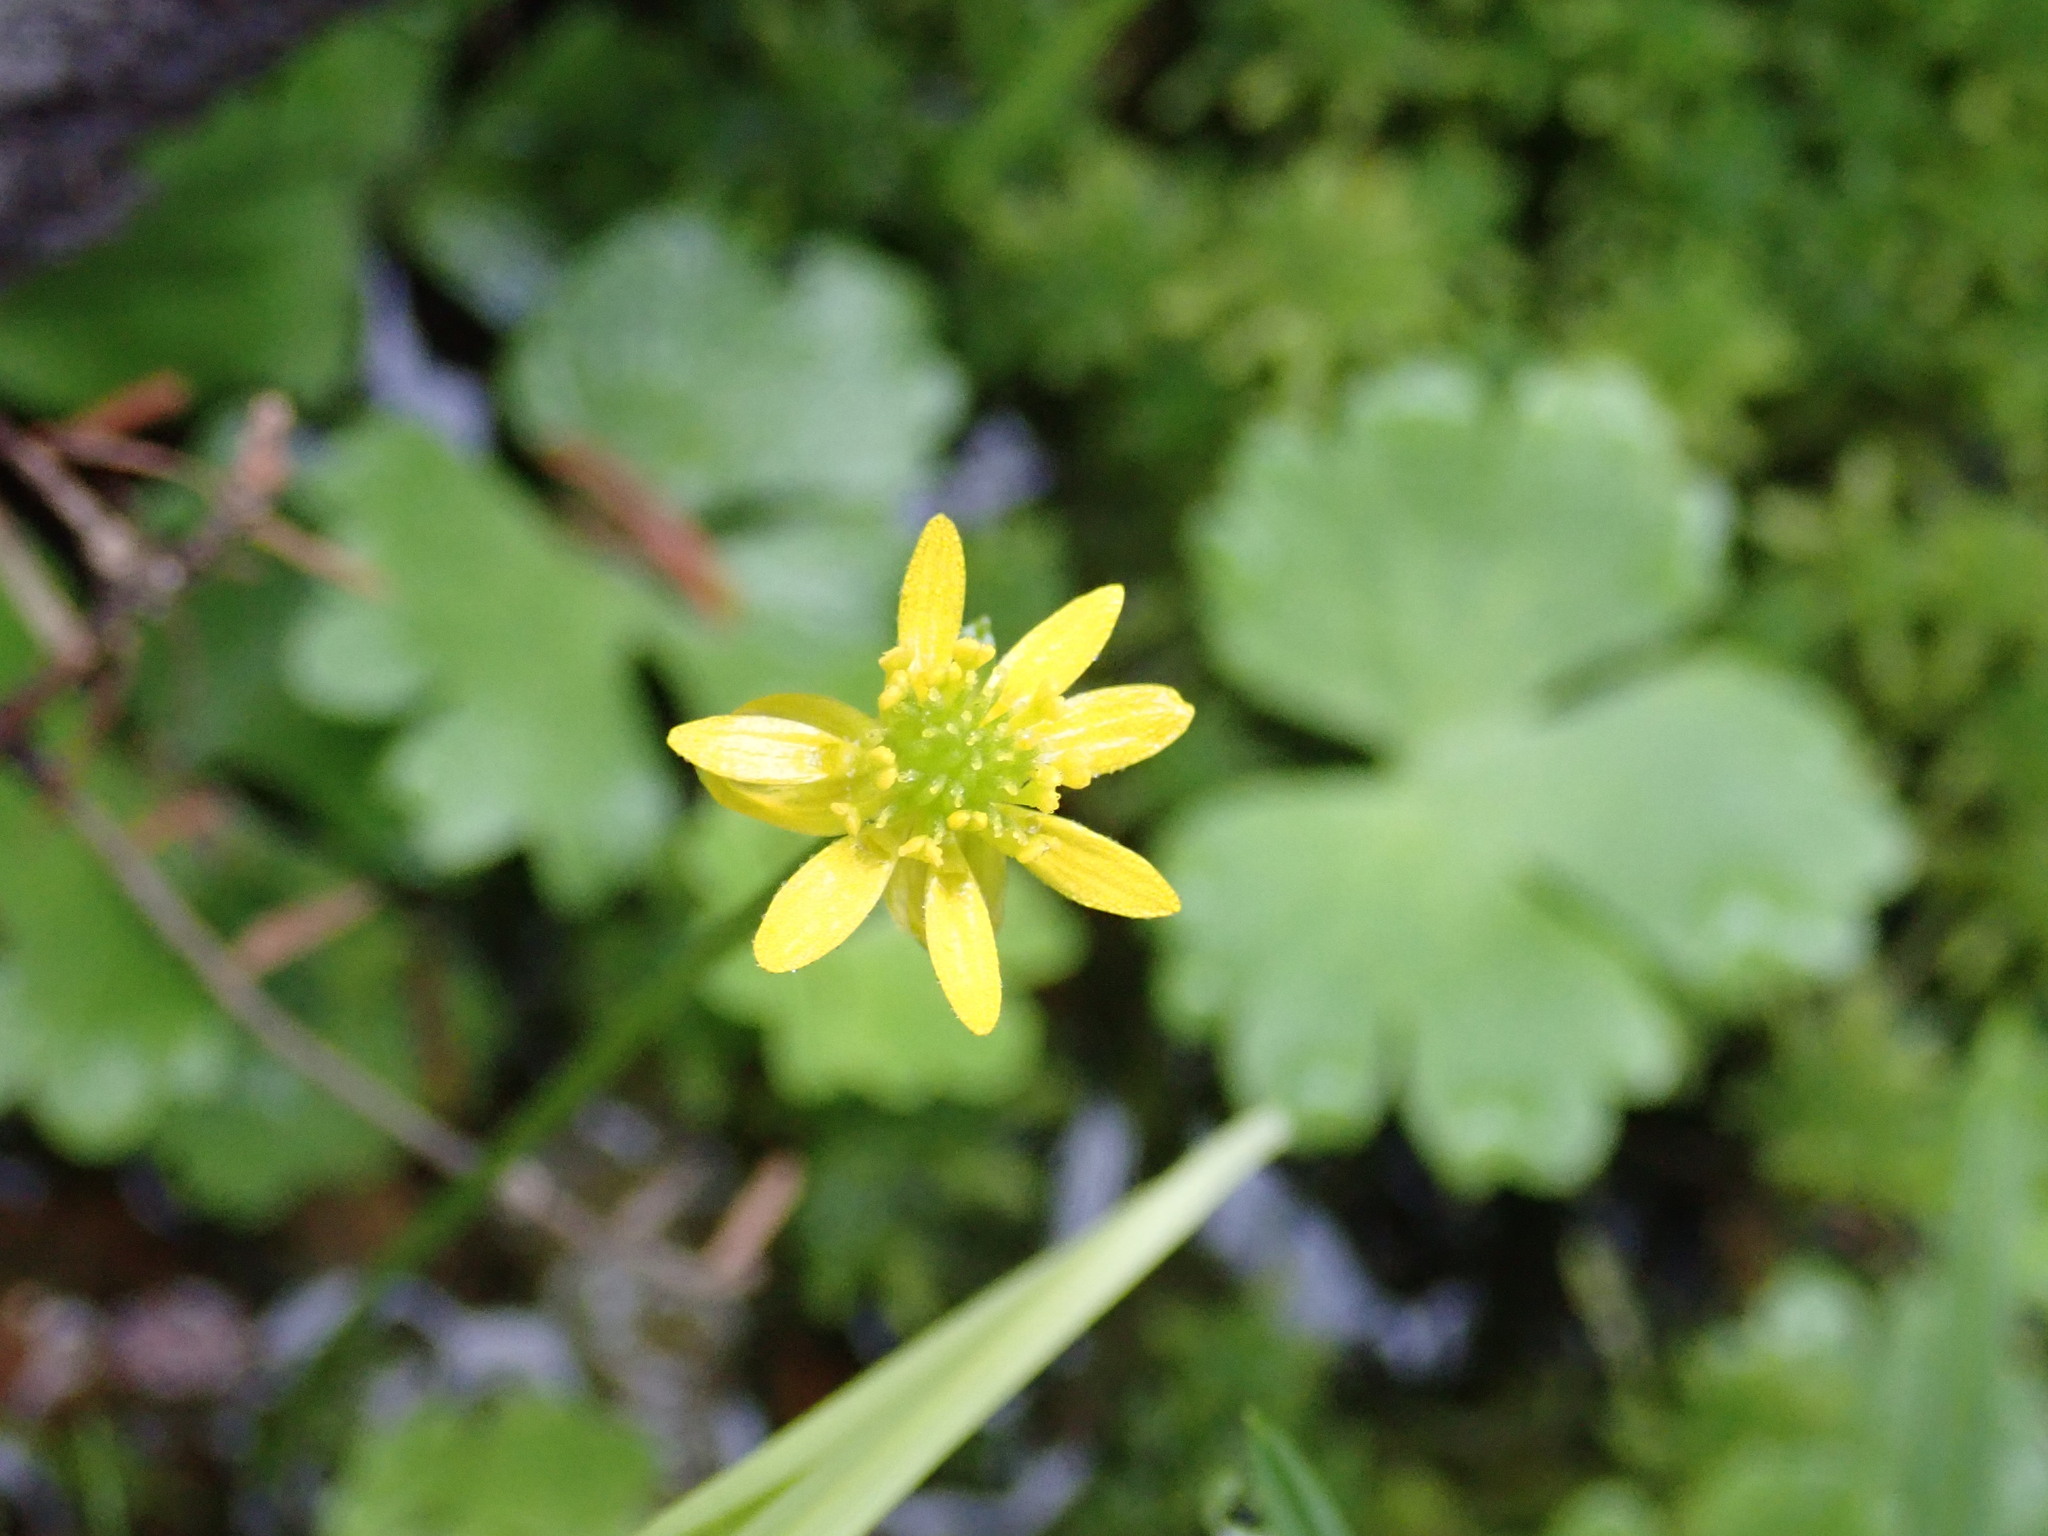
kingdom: Plantae
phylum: Tracheophyta
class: Magnoliopsida
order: Ranunculales
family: Ranunculaceae
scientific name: Ranunculaceae
